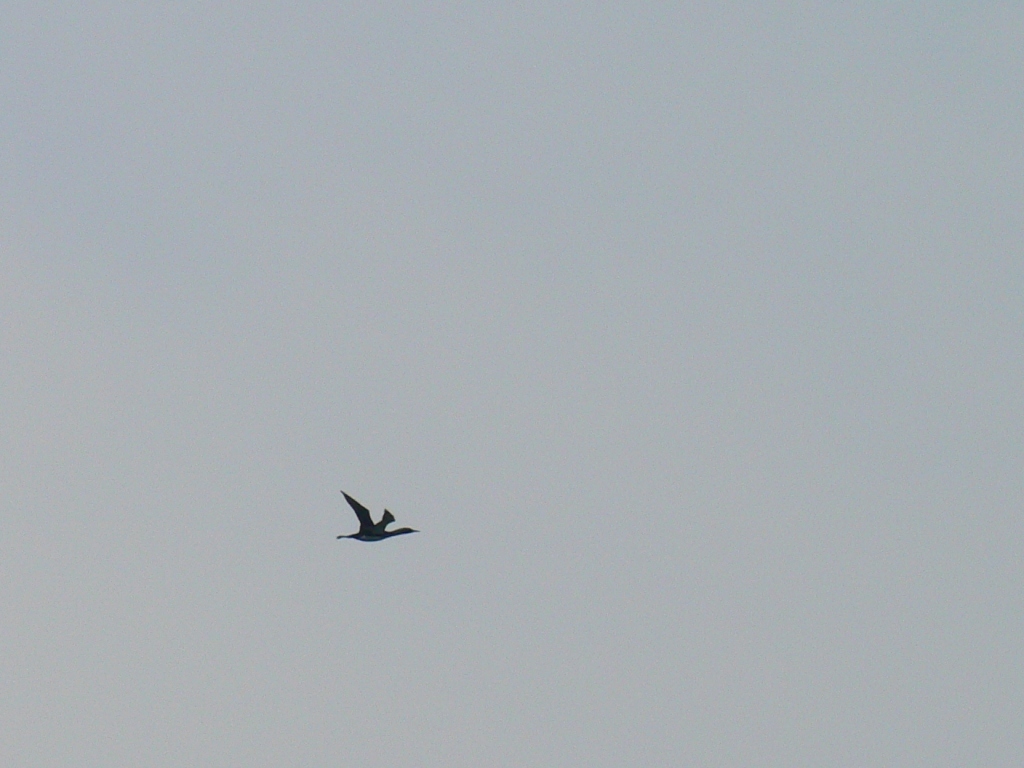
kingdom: Animalia
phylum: Chordata
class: Aves
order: Gaviiformes
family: Gaviidae
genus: Gavia
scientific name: Gavia arctica
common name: Black-throated loon
